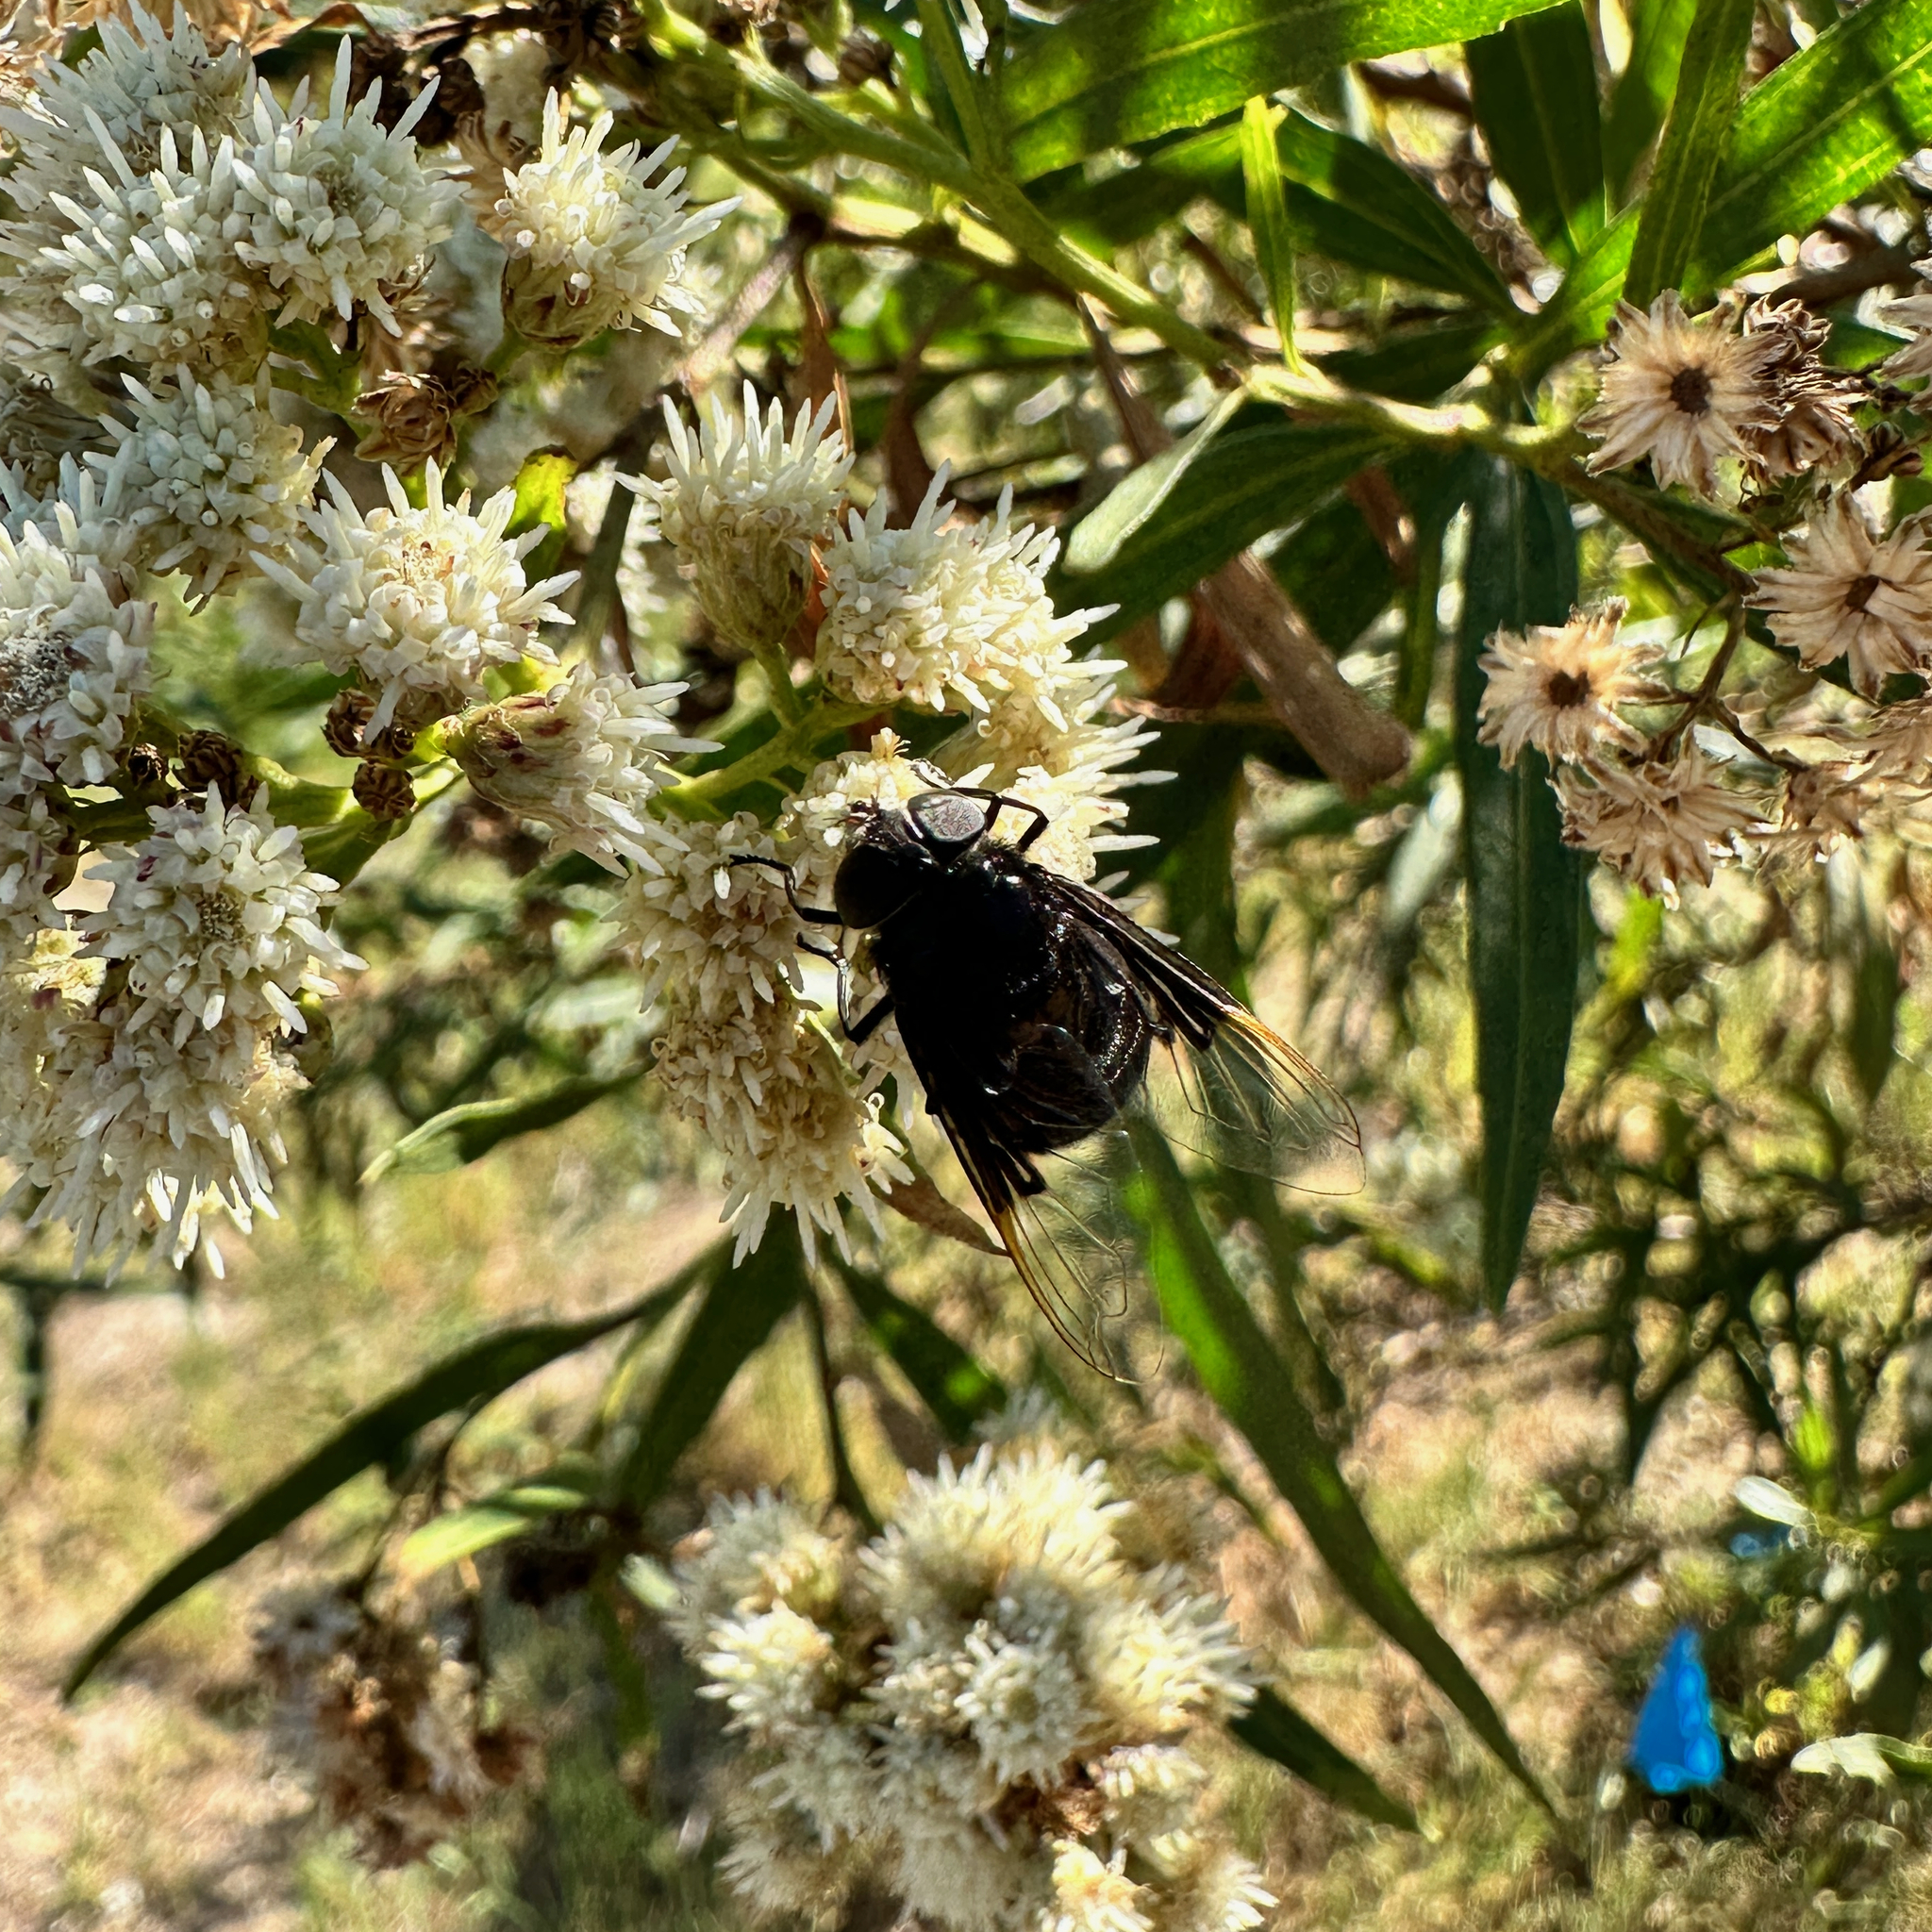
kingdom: Animalia
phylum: Arthropoda
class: Insecta
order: Diptera
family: Syrphidae
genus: Copestylum
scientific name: Copestylum mexicanum
